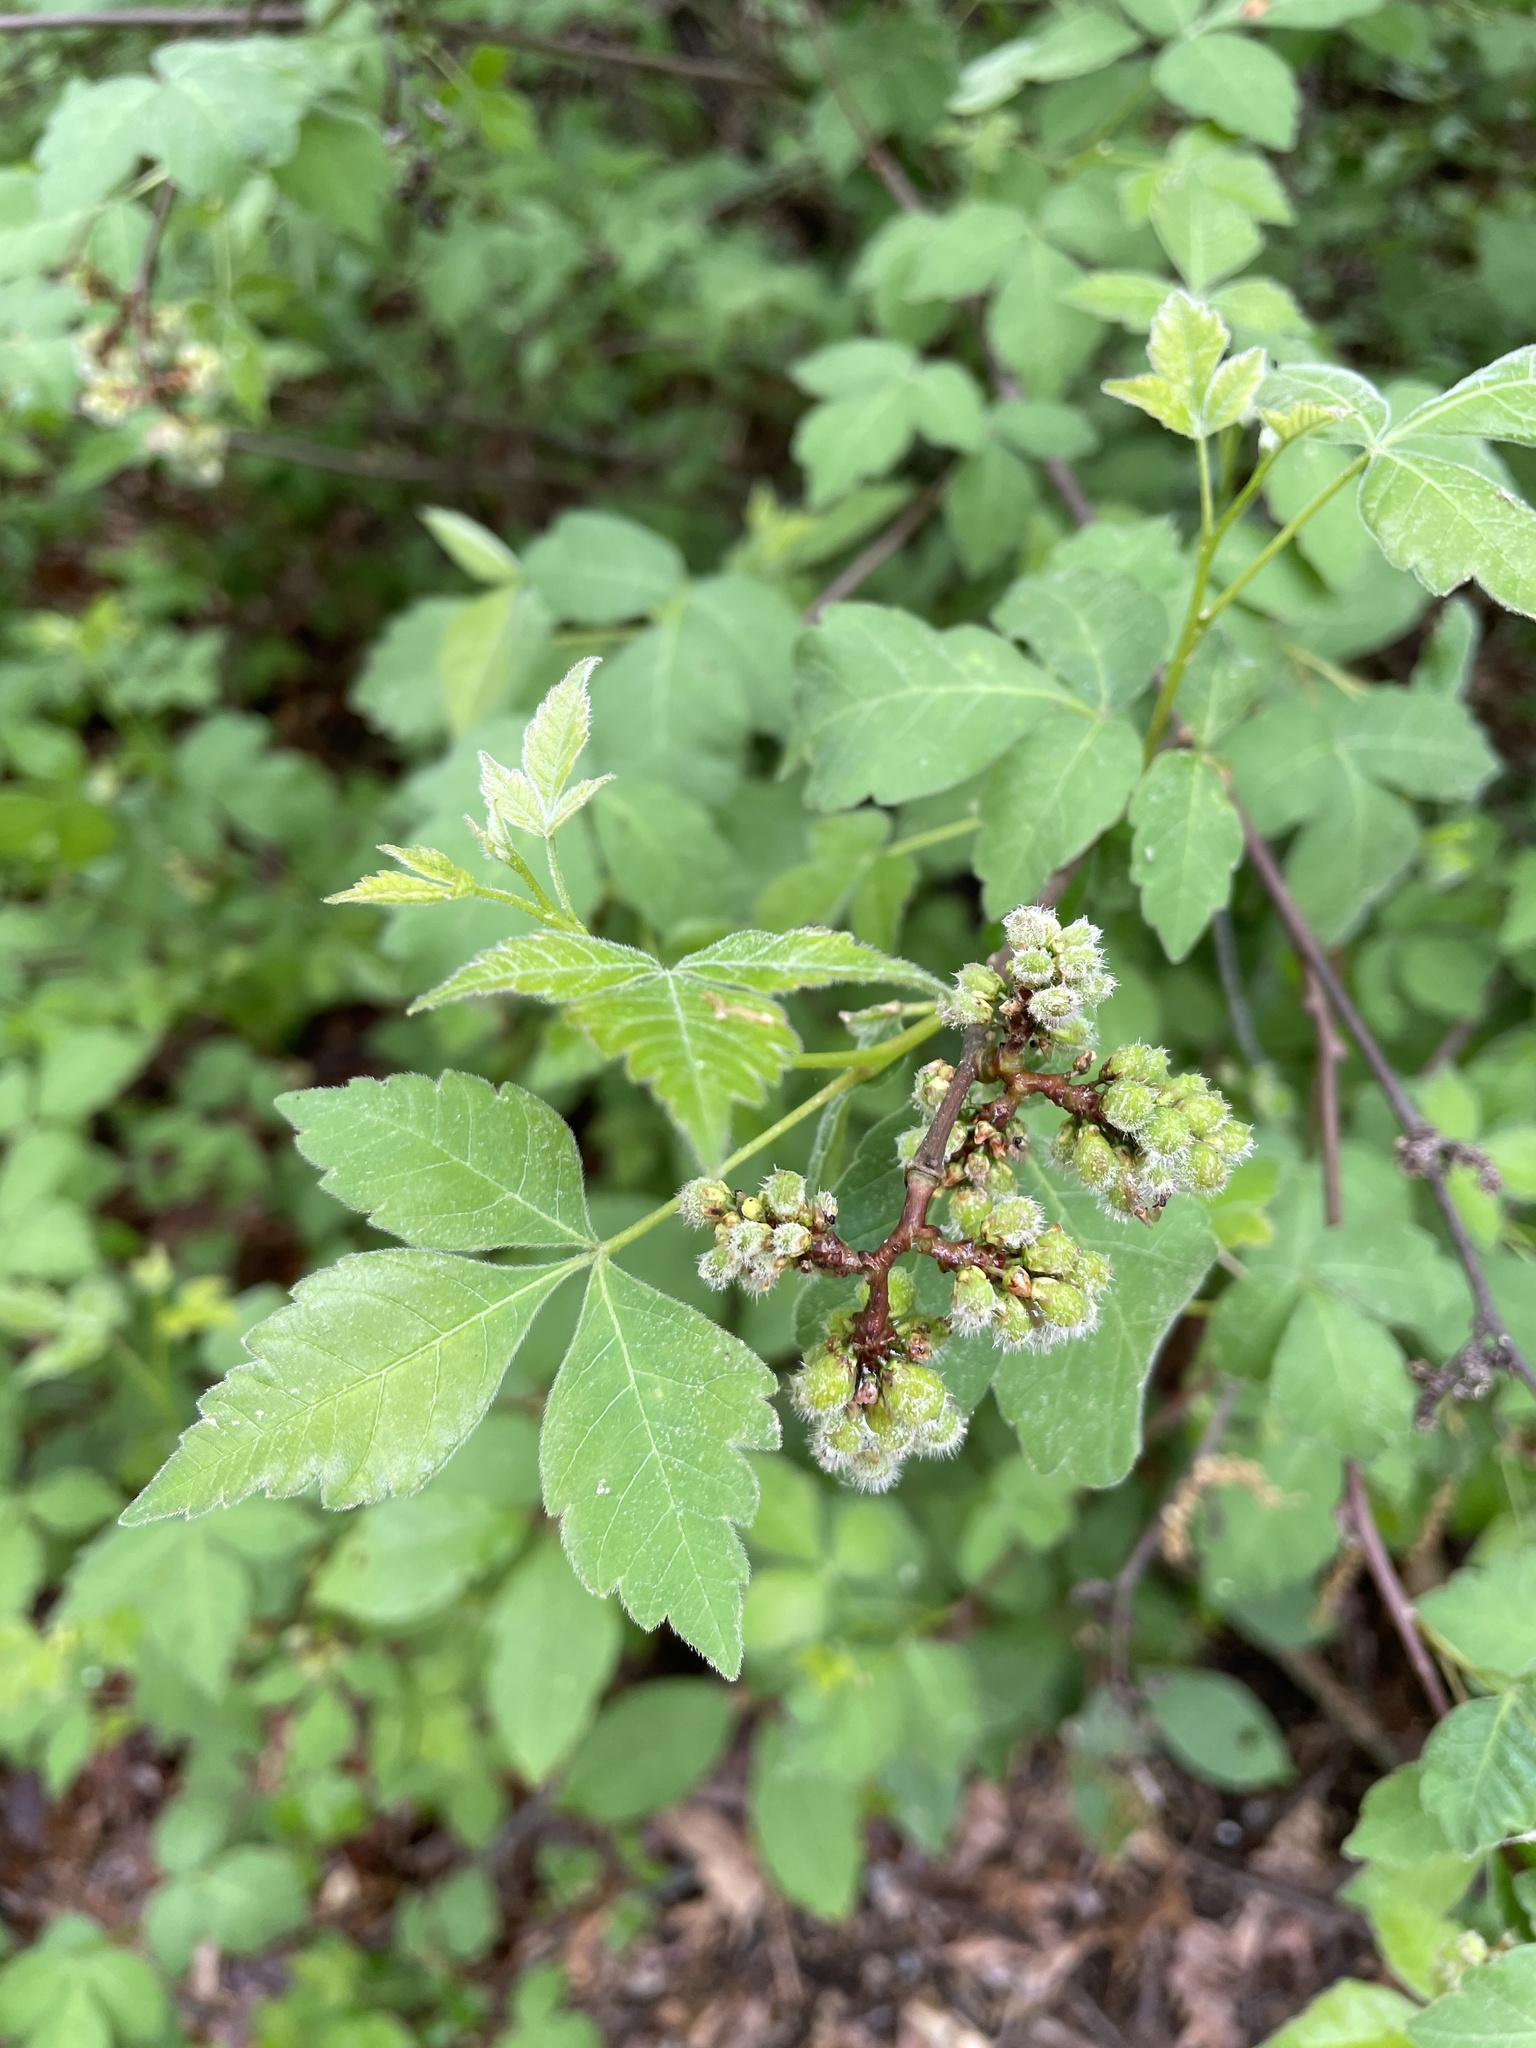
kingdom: Plantae
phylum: Tracheophyta
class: Magnoliopsida
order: Sapindales
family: Anacardiaceae
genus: Rhus
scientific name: Rhus aromatica
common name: Aromatic sumac
